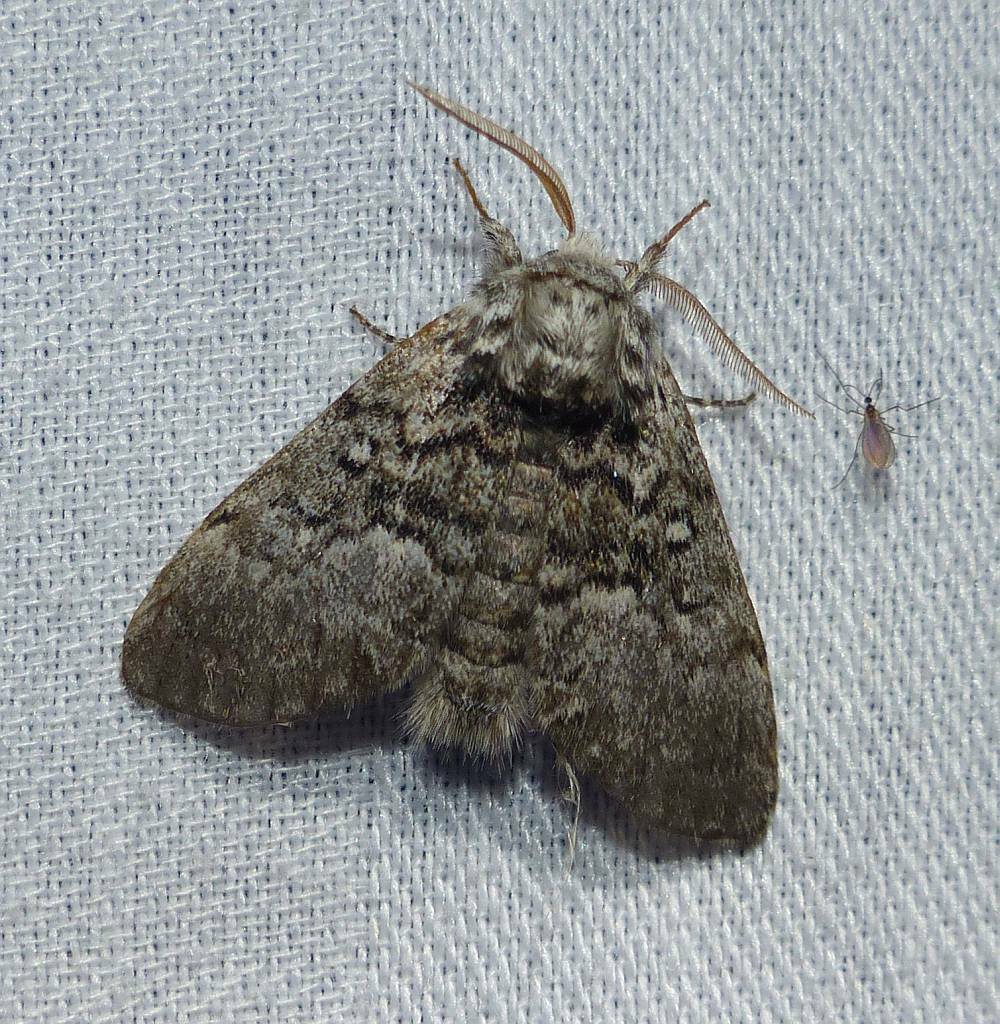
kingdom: Animalia
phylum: Arthropoda
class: Insecta
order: Lepidoptera
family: Noctuidae
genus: Colocasia
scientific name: Colocasia propinquilinea
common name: Close-banded demas
